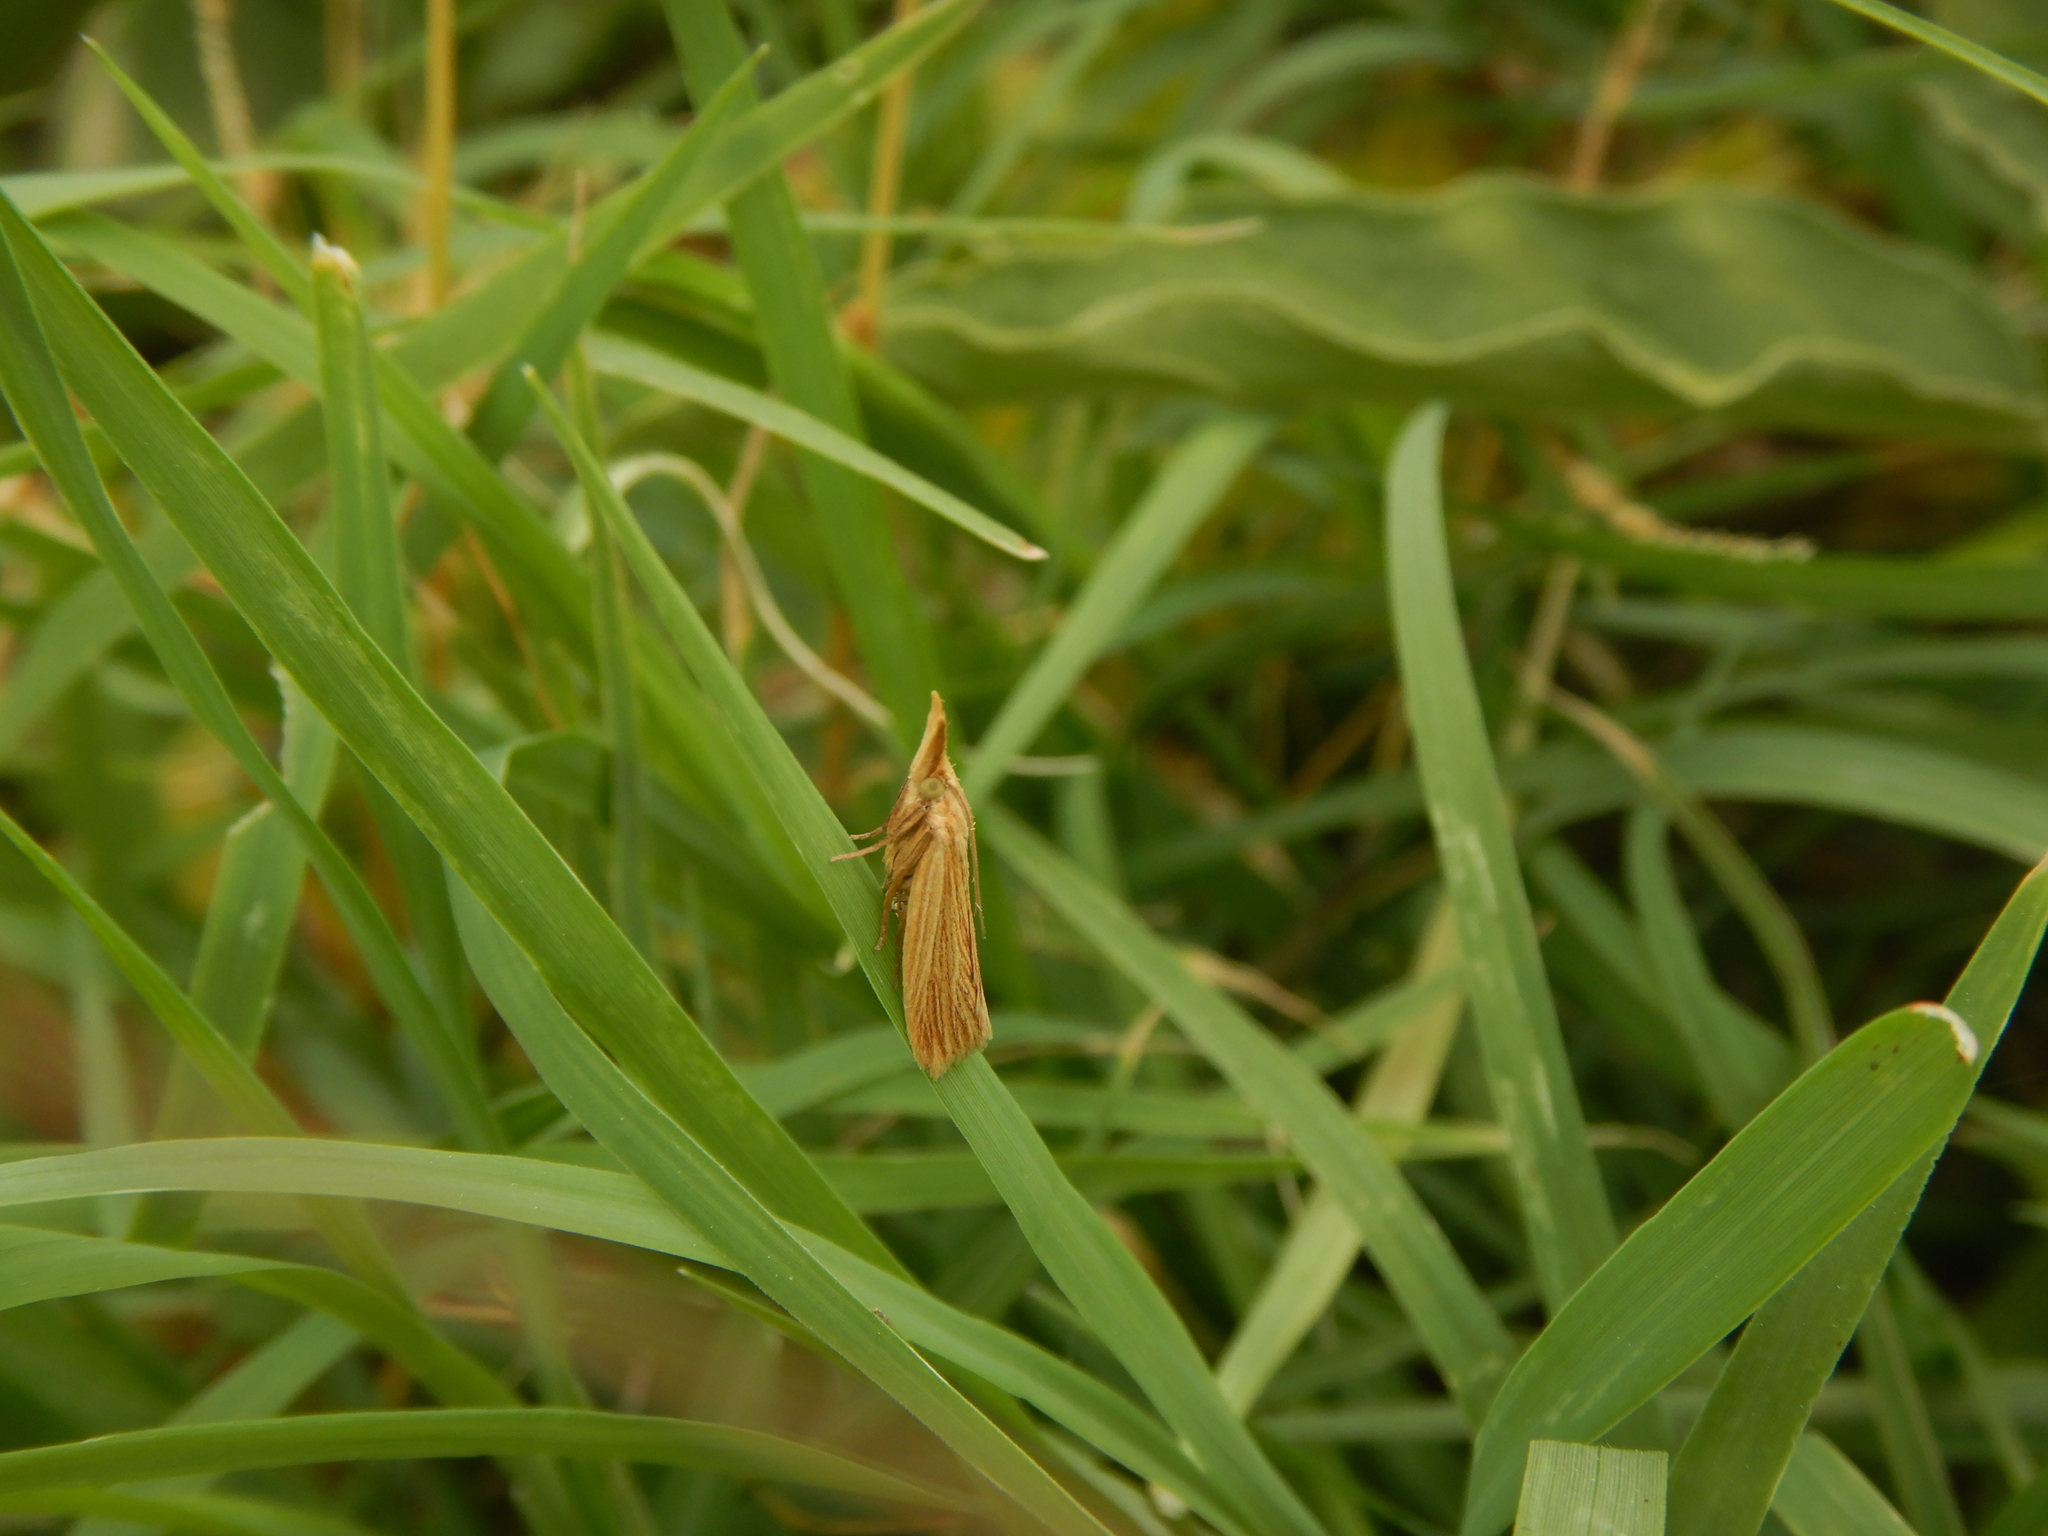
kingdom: Animalia
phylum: Arthropoda
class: Insecta
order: Lepidoptera
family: Pyralidae
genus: Ematheudes
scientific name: Ematheudes punctellus
